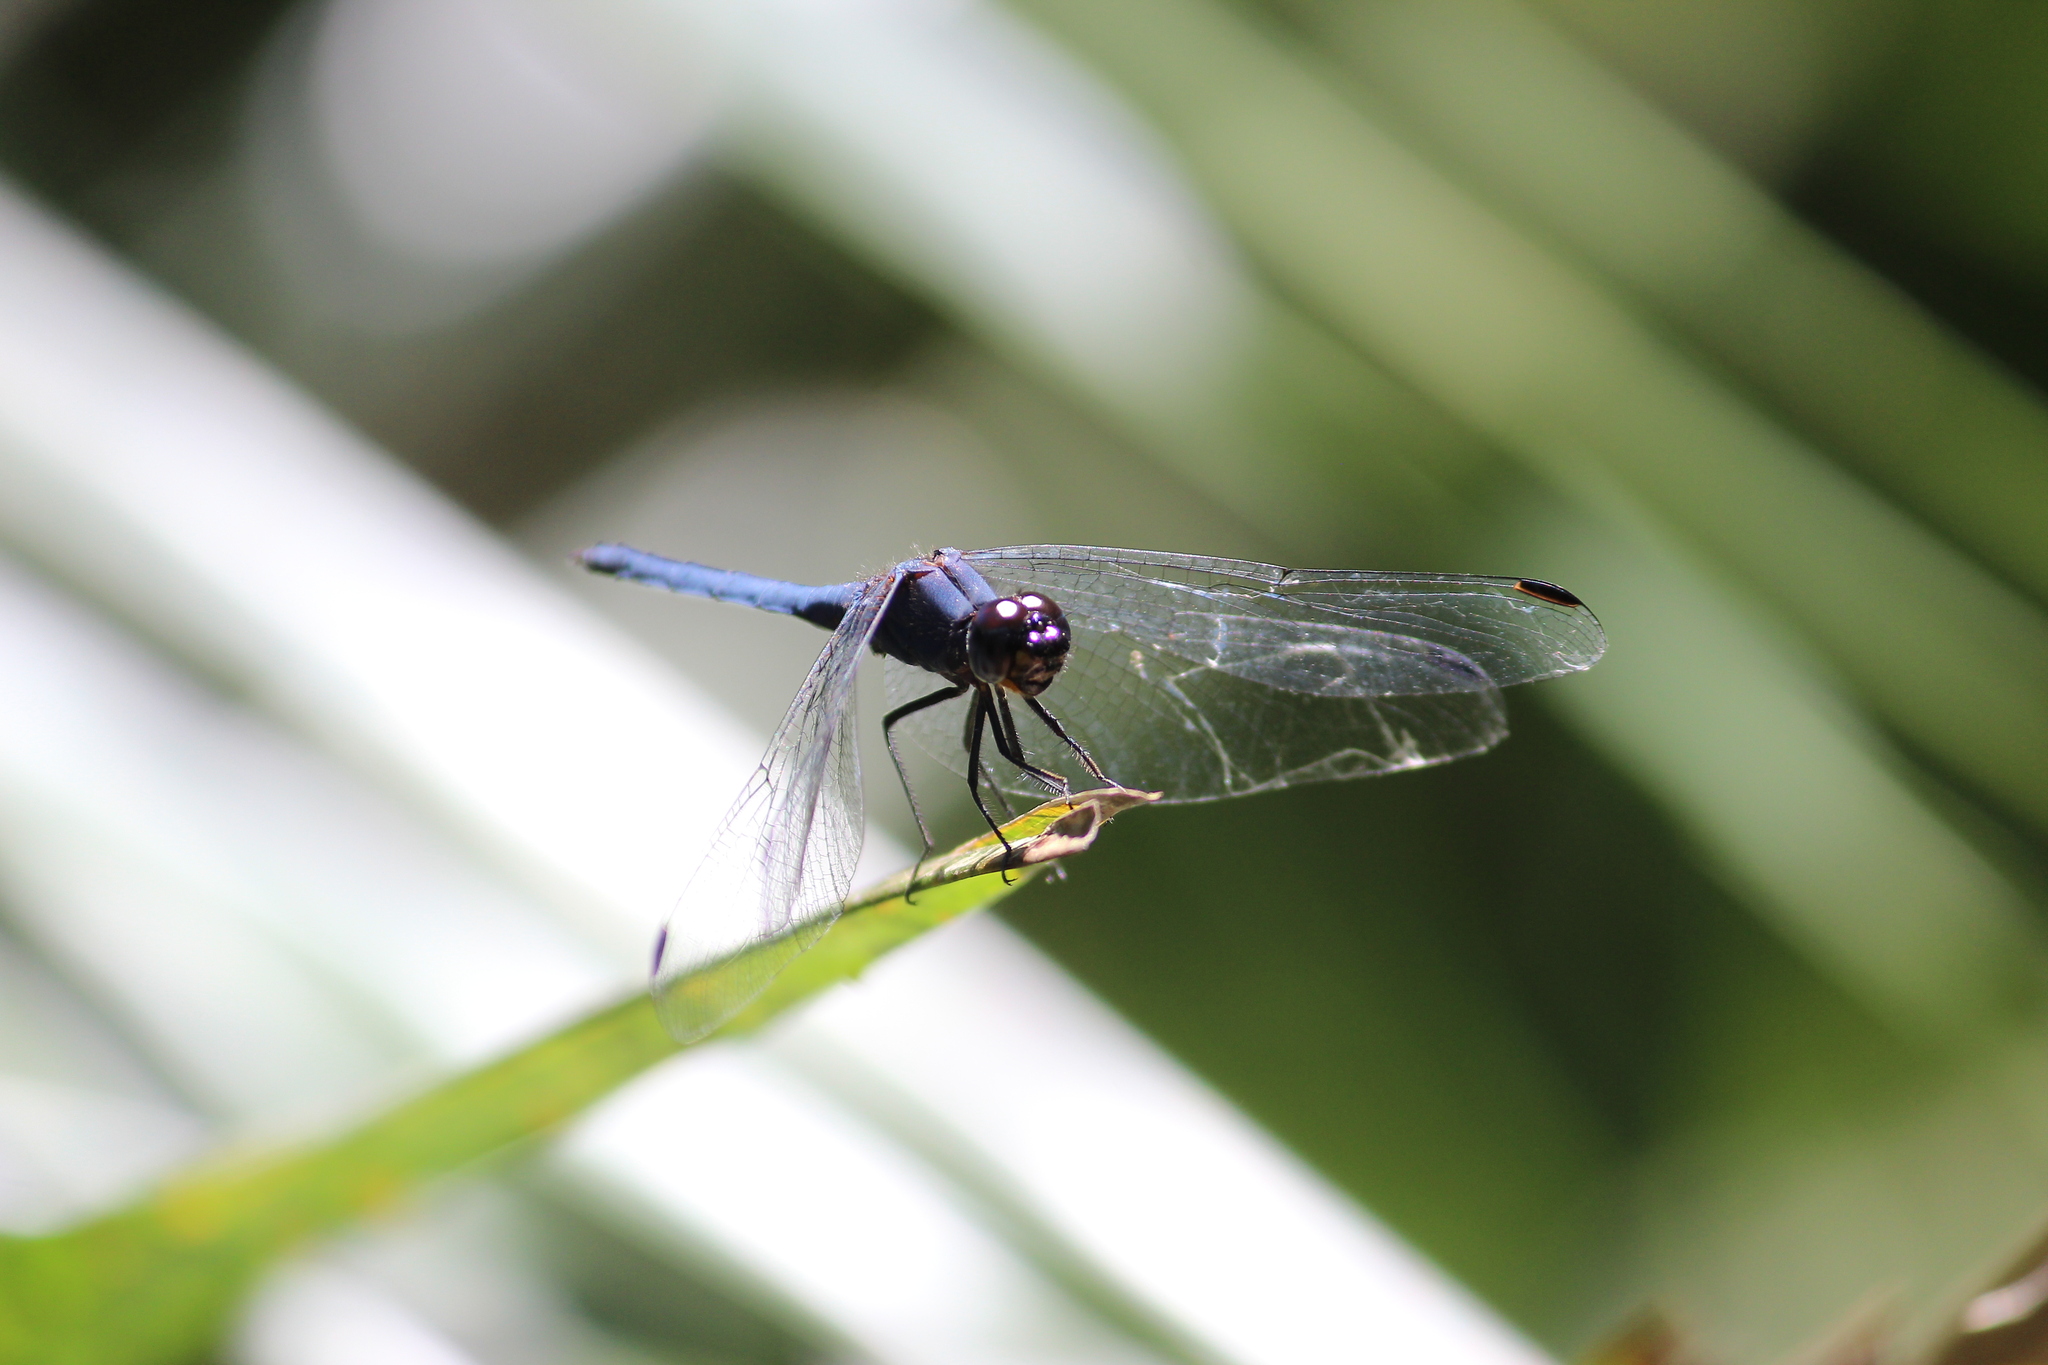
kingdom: Animalia
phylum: Arthropoda
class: Insecta
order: Odonata
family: Libellulidae
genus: Trithemis
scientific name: Trithemis furva
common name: Dark dropwing
